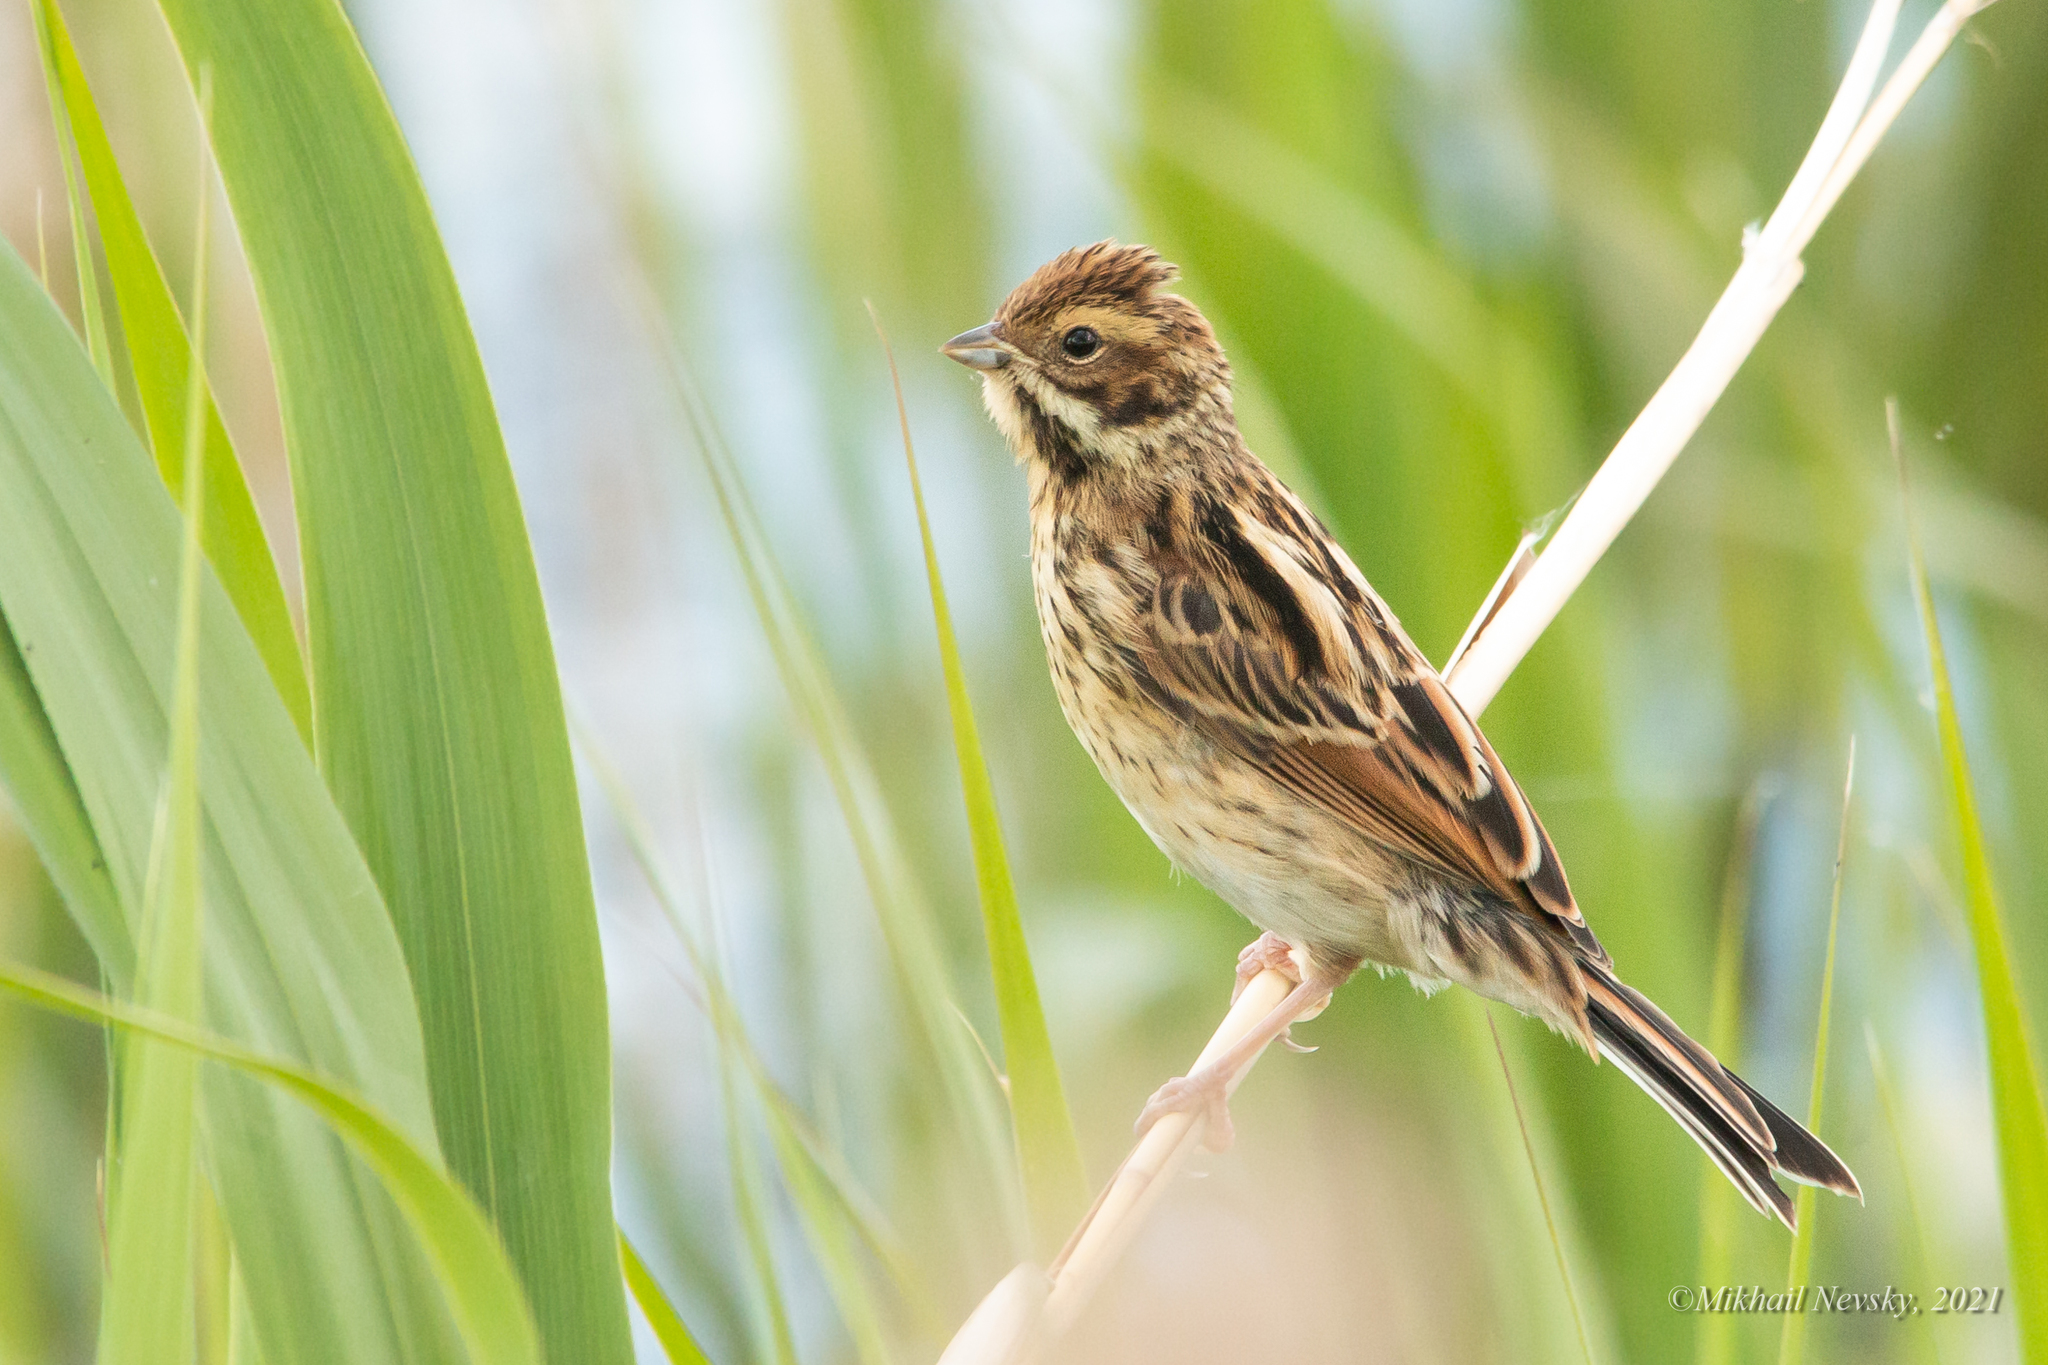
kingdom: Animalia
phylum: Chordata
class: Aves
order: Passeriformes
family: Emberizidae
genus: Emberiza
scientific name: Emberiza schoeniclus
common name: Reed bunting
